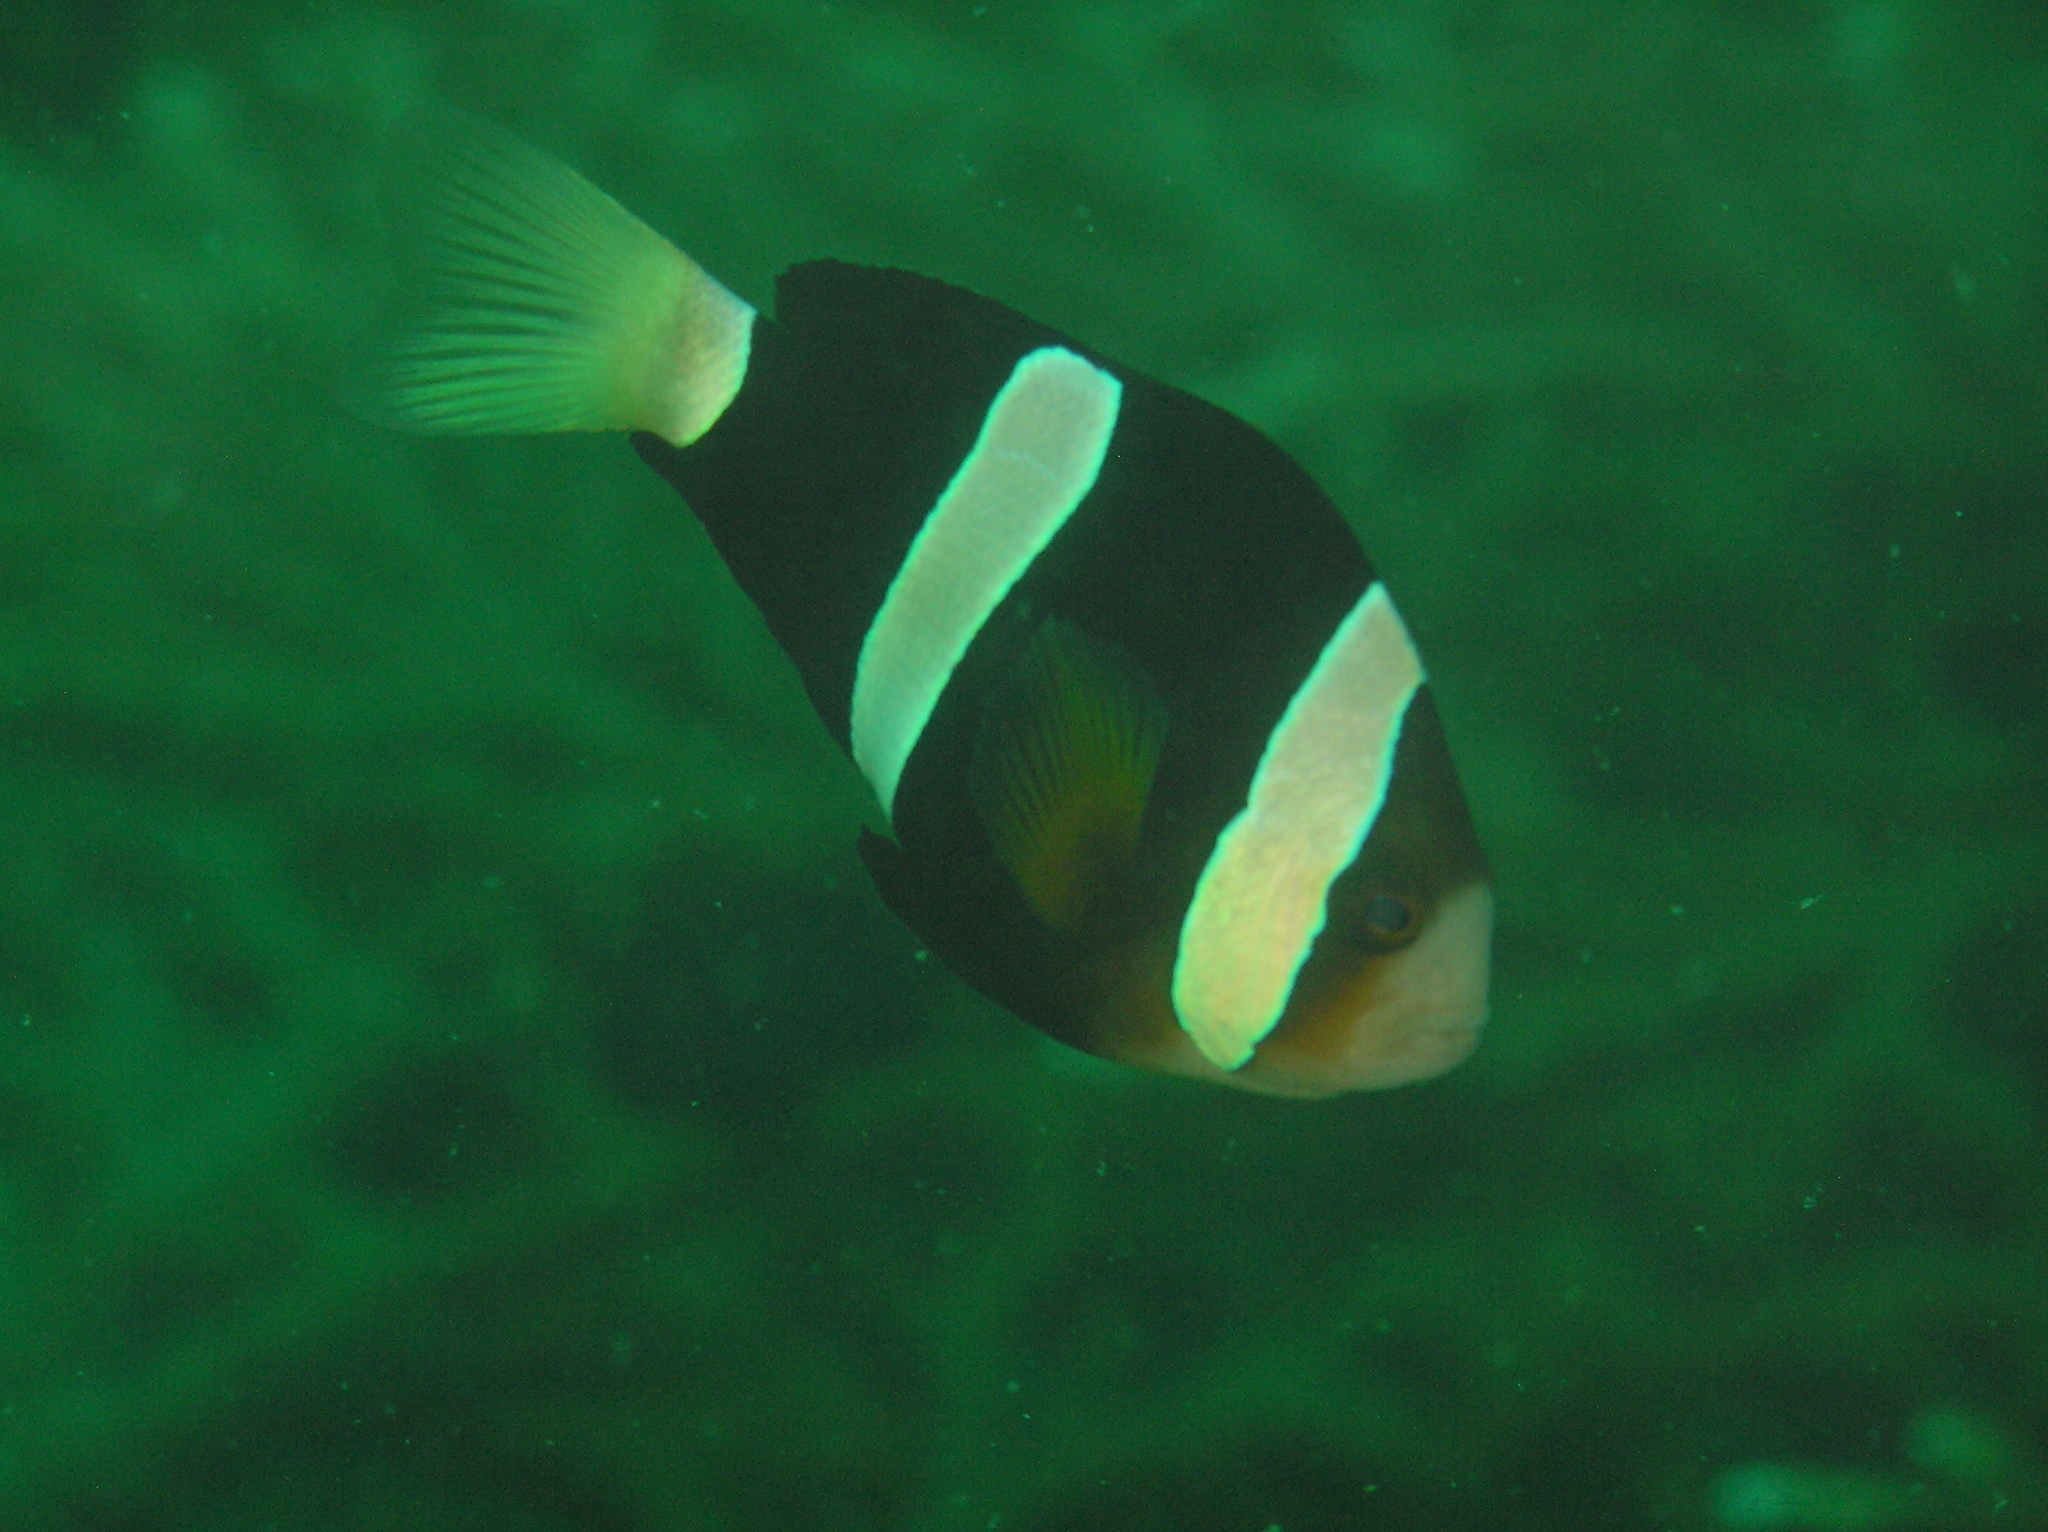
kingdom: Animalia
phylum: Chordata
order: Perciformes
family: Pomacentridae
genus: Amphiprion
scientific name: Amphiprion clarkii
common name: Clark's anemonefish
